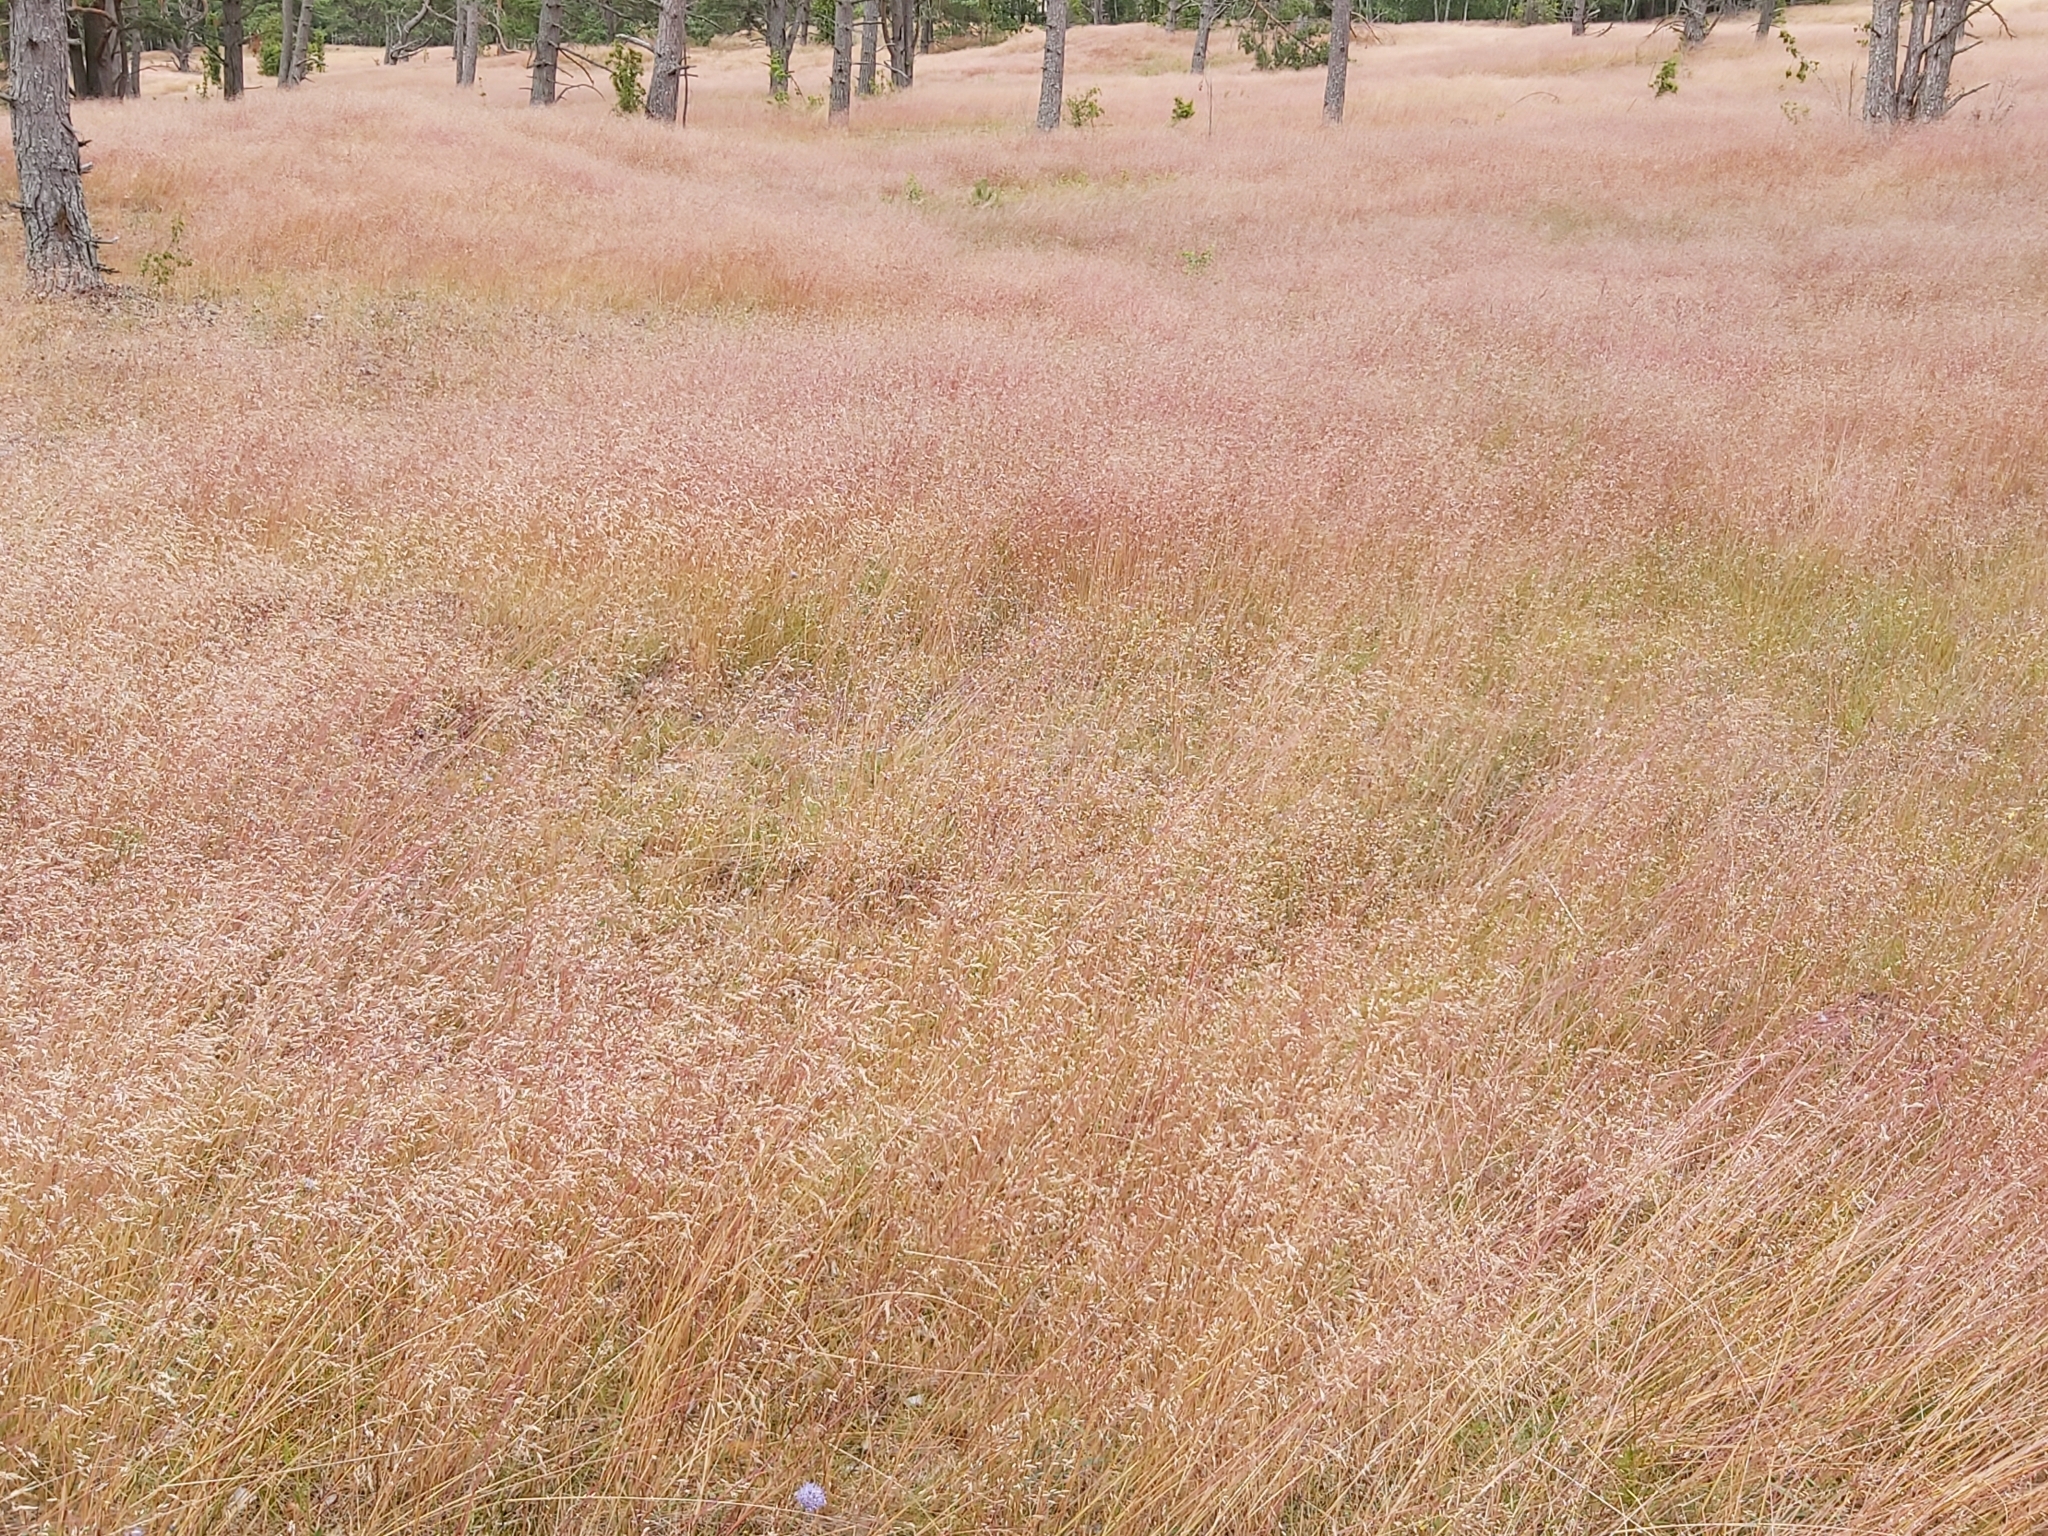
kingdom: Plantae
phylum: Tracheophyta
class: Liliopsida
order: Poales
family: Poaceae
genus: Avenella
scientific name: Avenella flexuosa
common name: Wavy hairgrass
